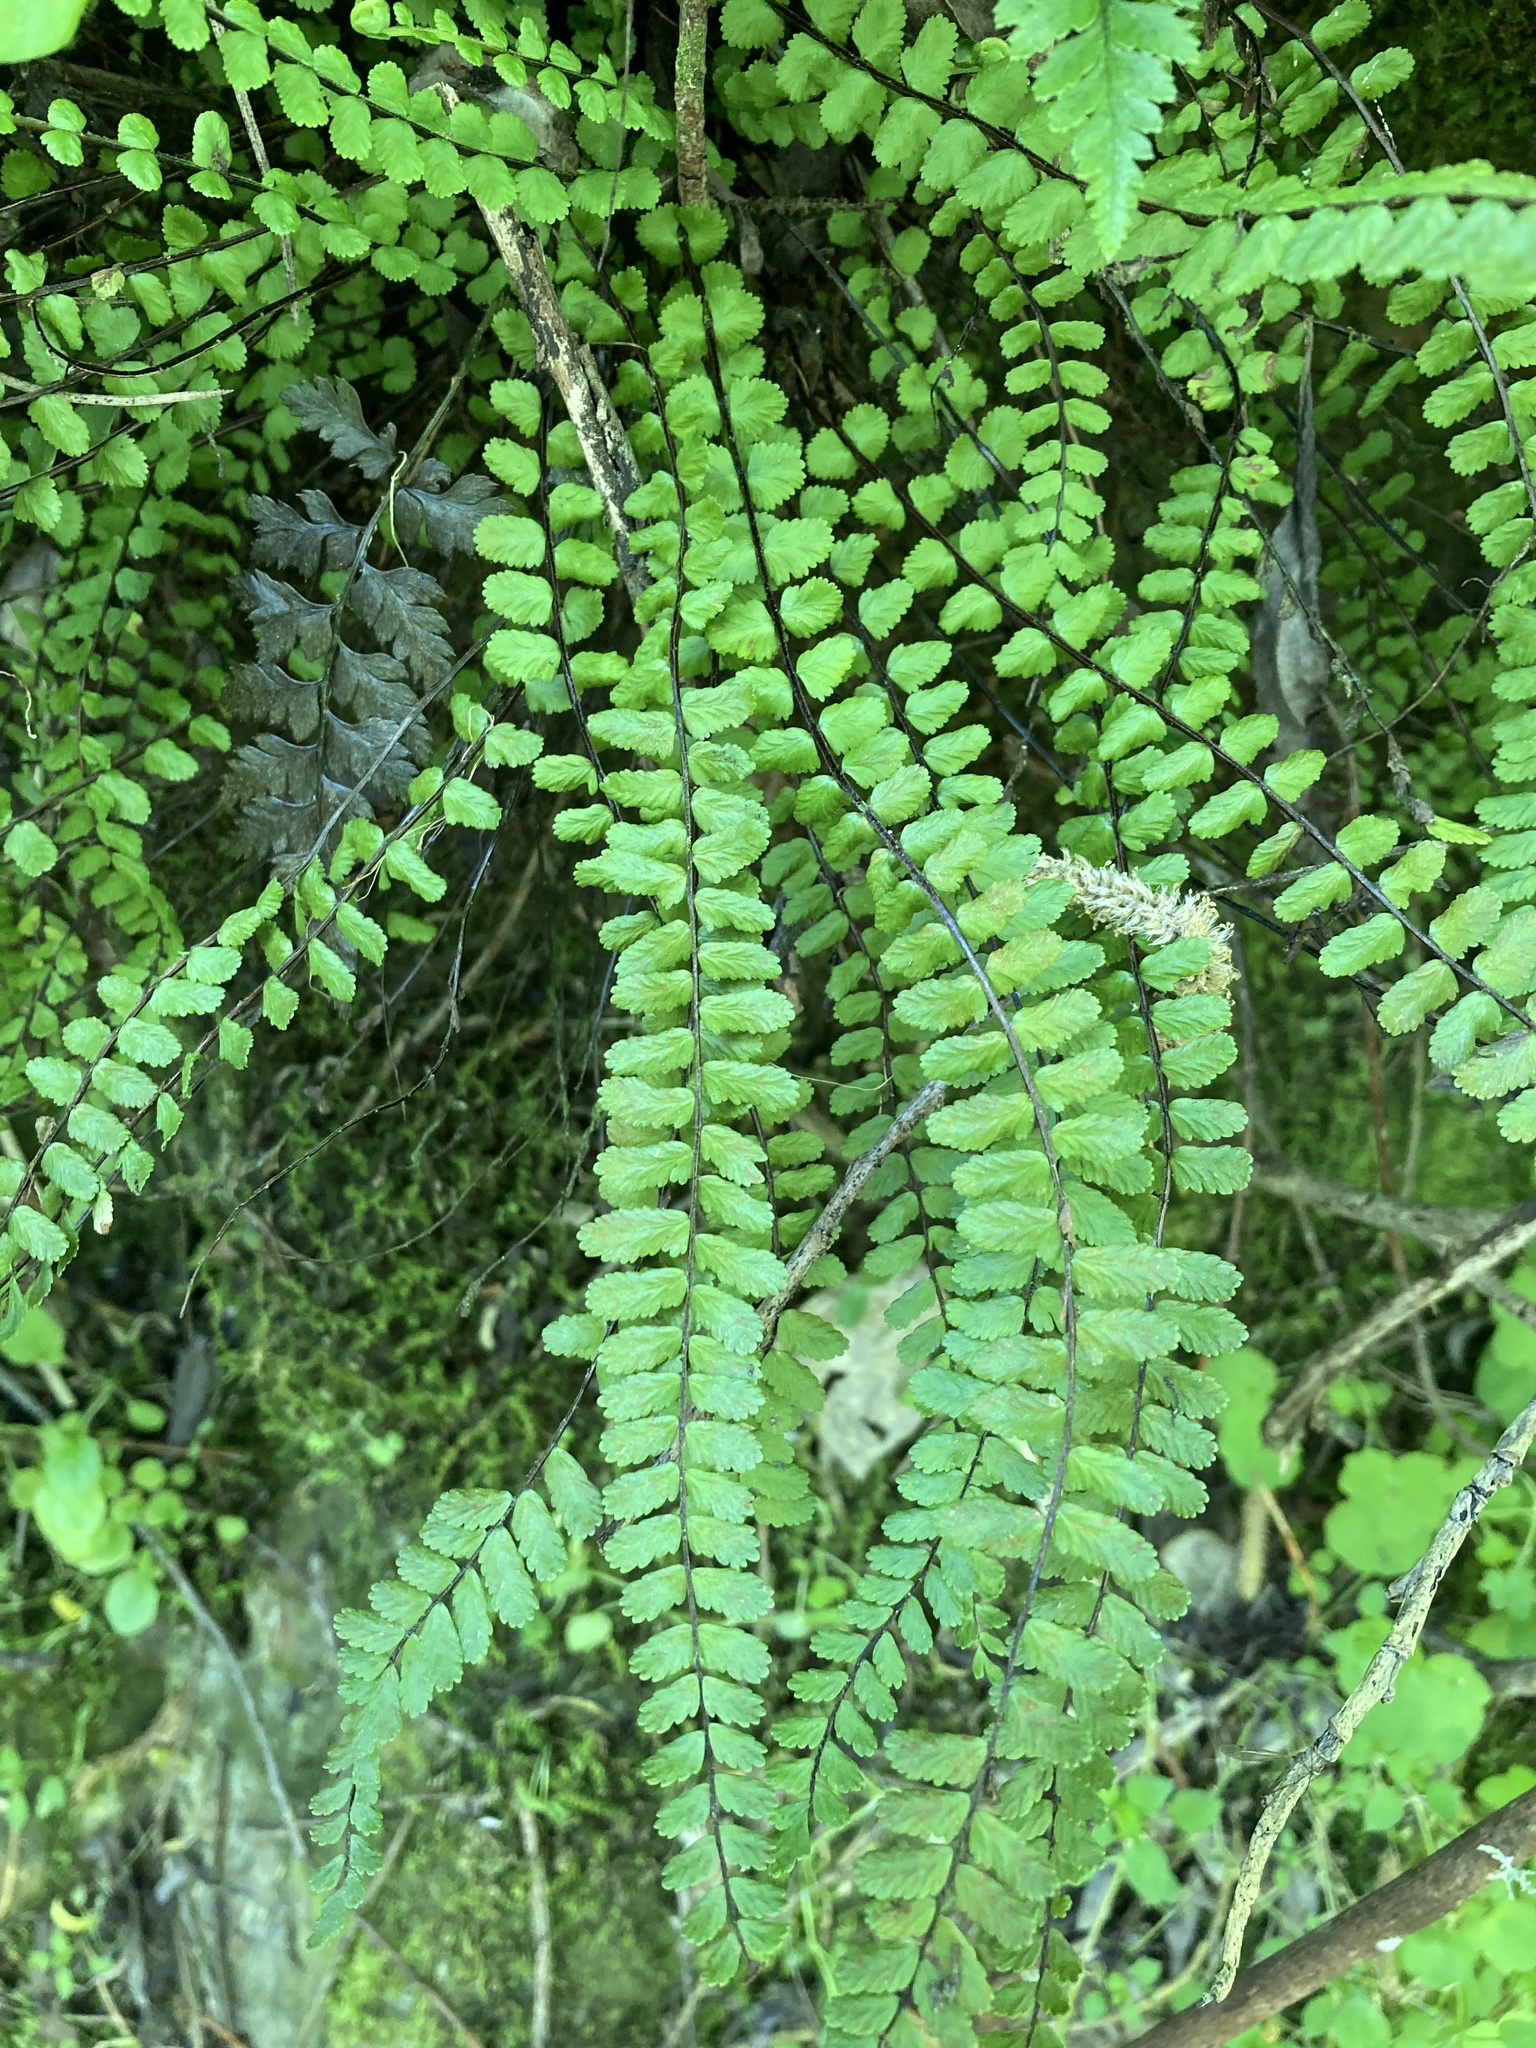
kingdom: Plantae
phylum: Tracheophyta
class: Polypodiopsida
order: Polypodiales
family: Aspleniaceae
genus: Asplenium
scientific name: Asplenium trichomanes
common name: Maidenhair spleenwort
